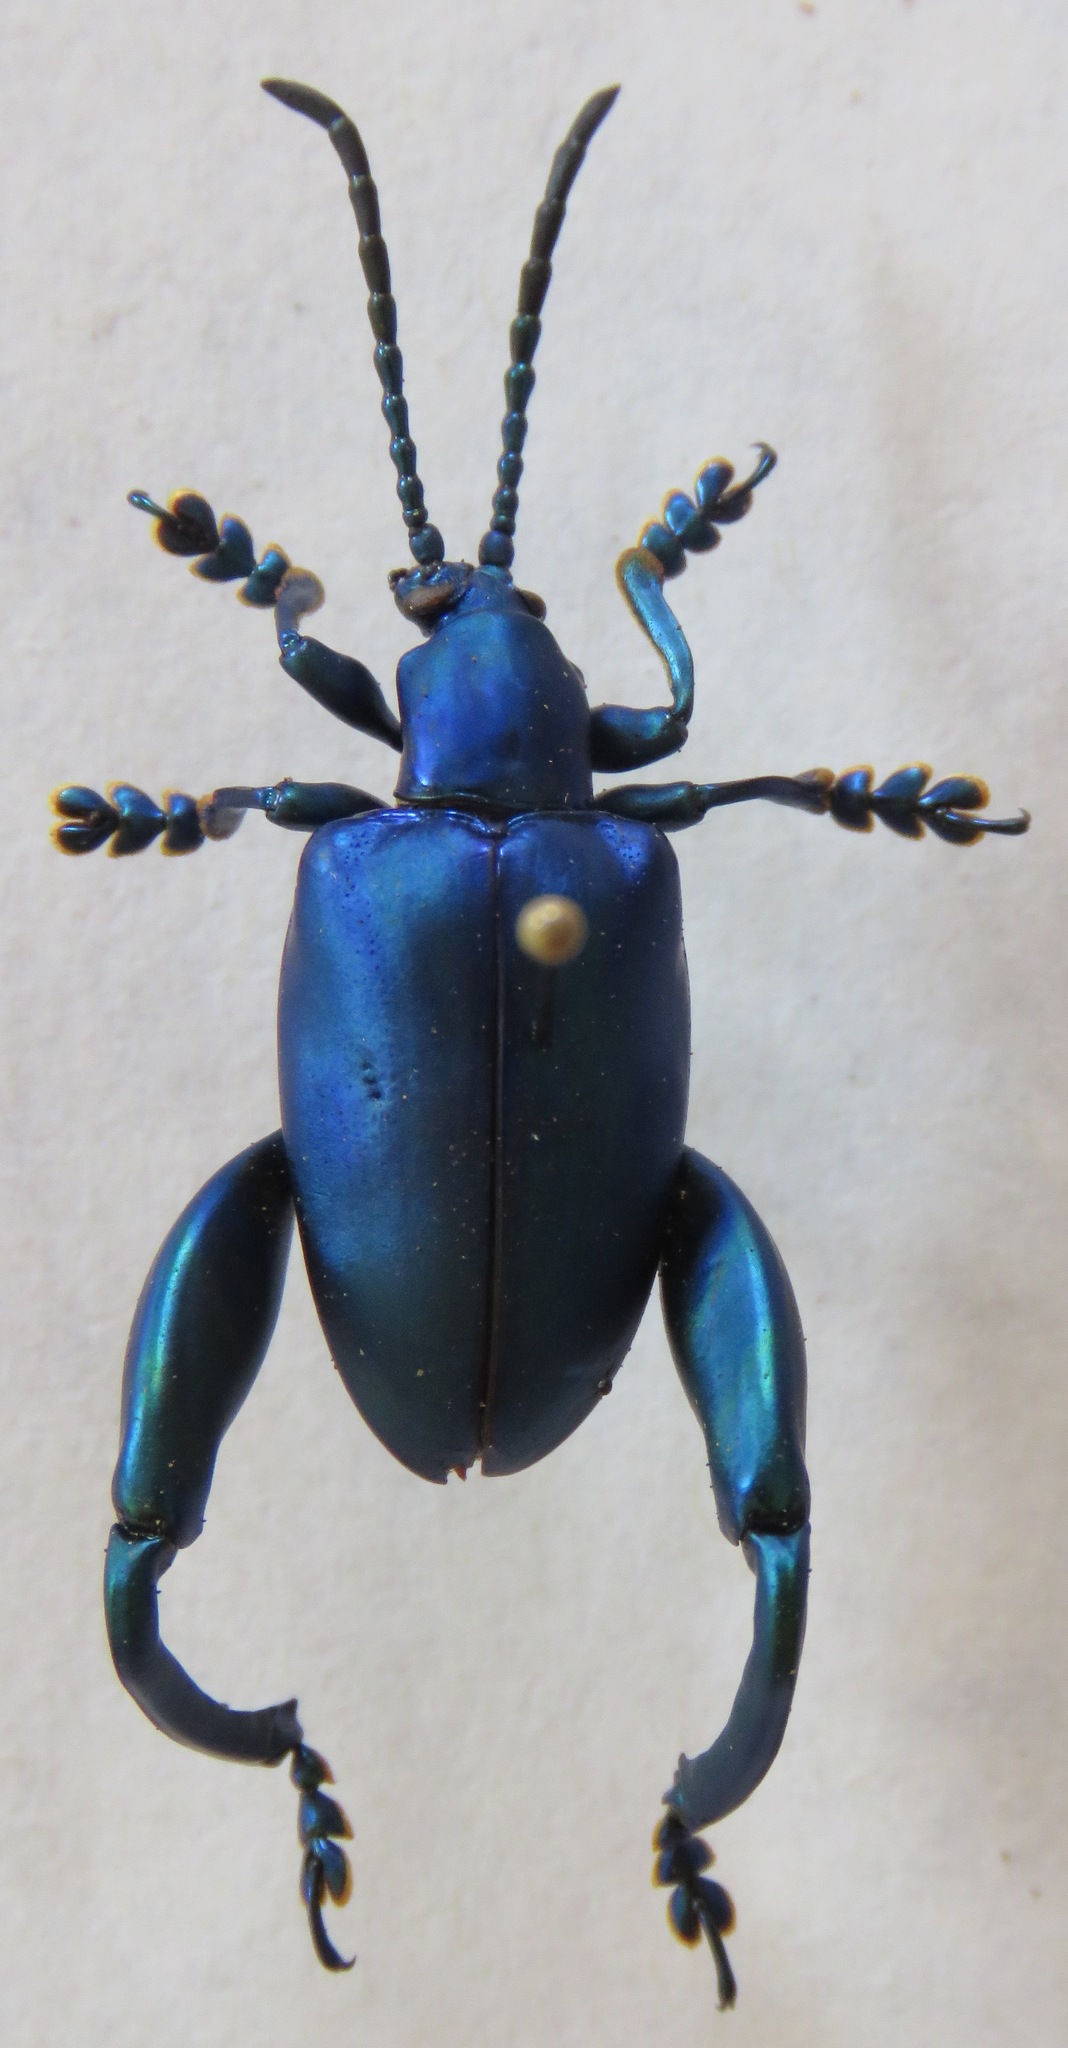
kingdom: Animalia
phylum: Arthropoda
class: Insecta
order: Coleoptera
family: Chrysomelidae
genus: Sagra
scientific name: Sagra femorata
